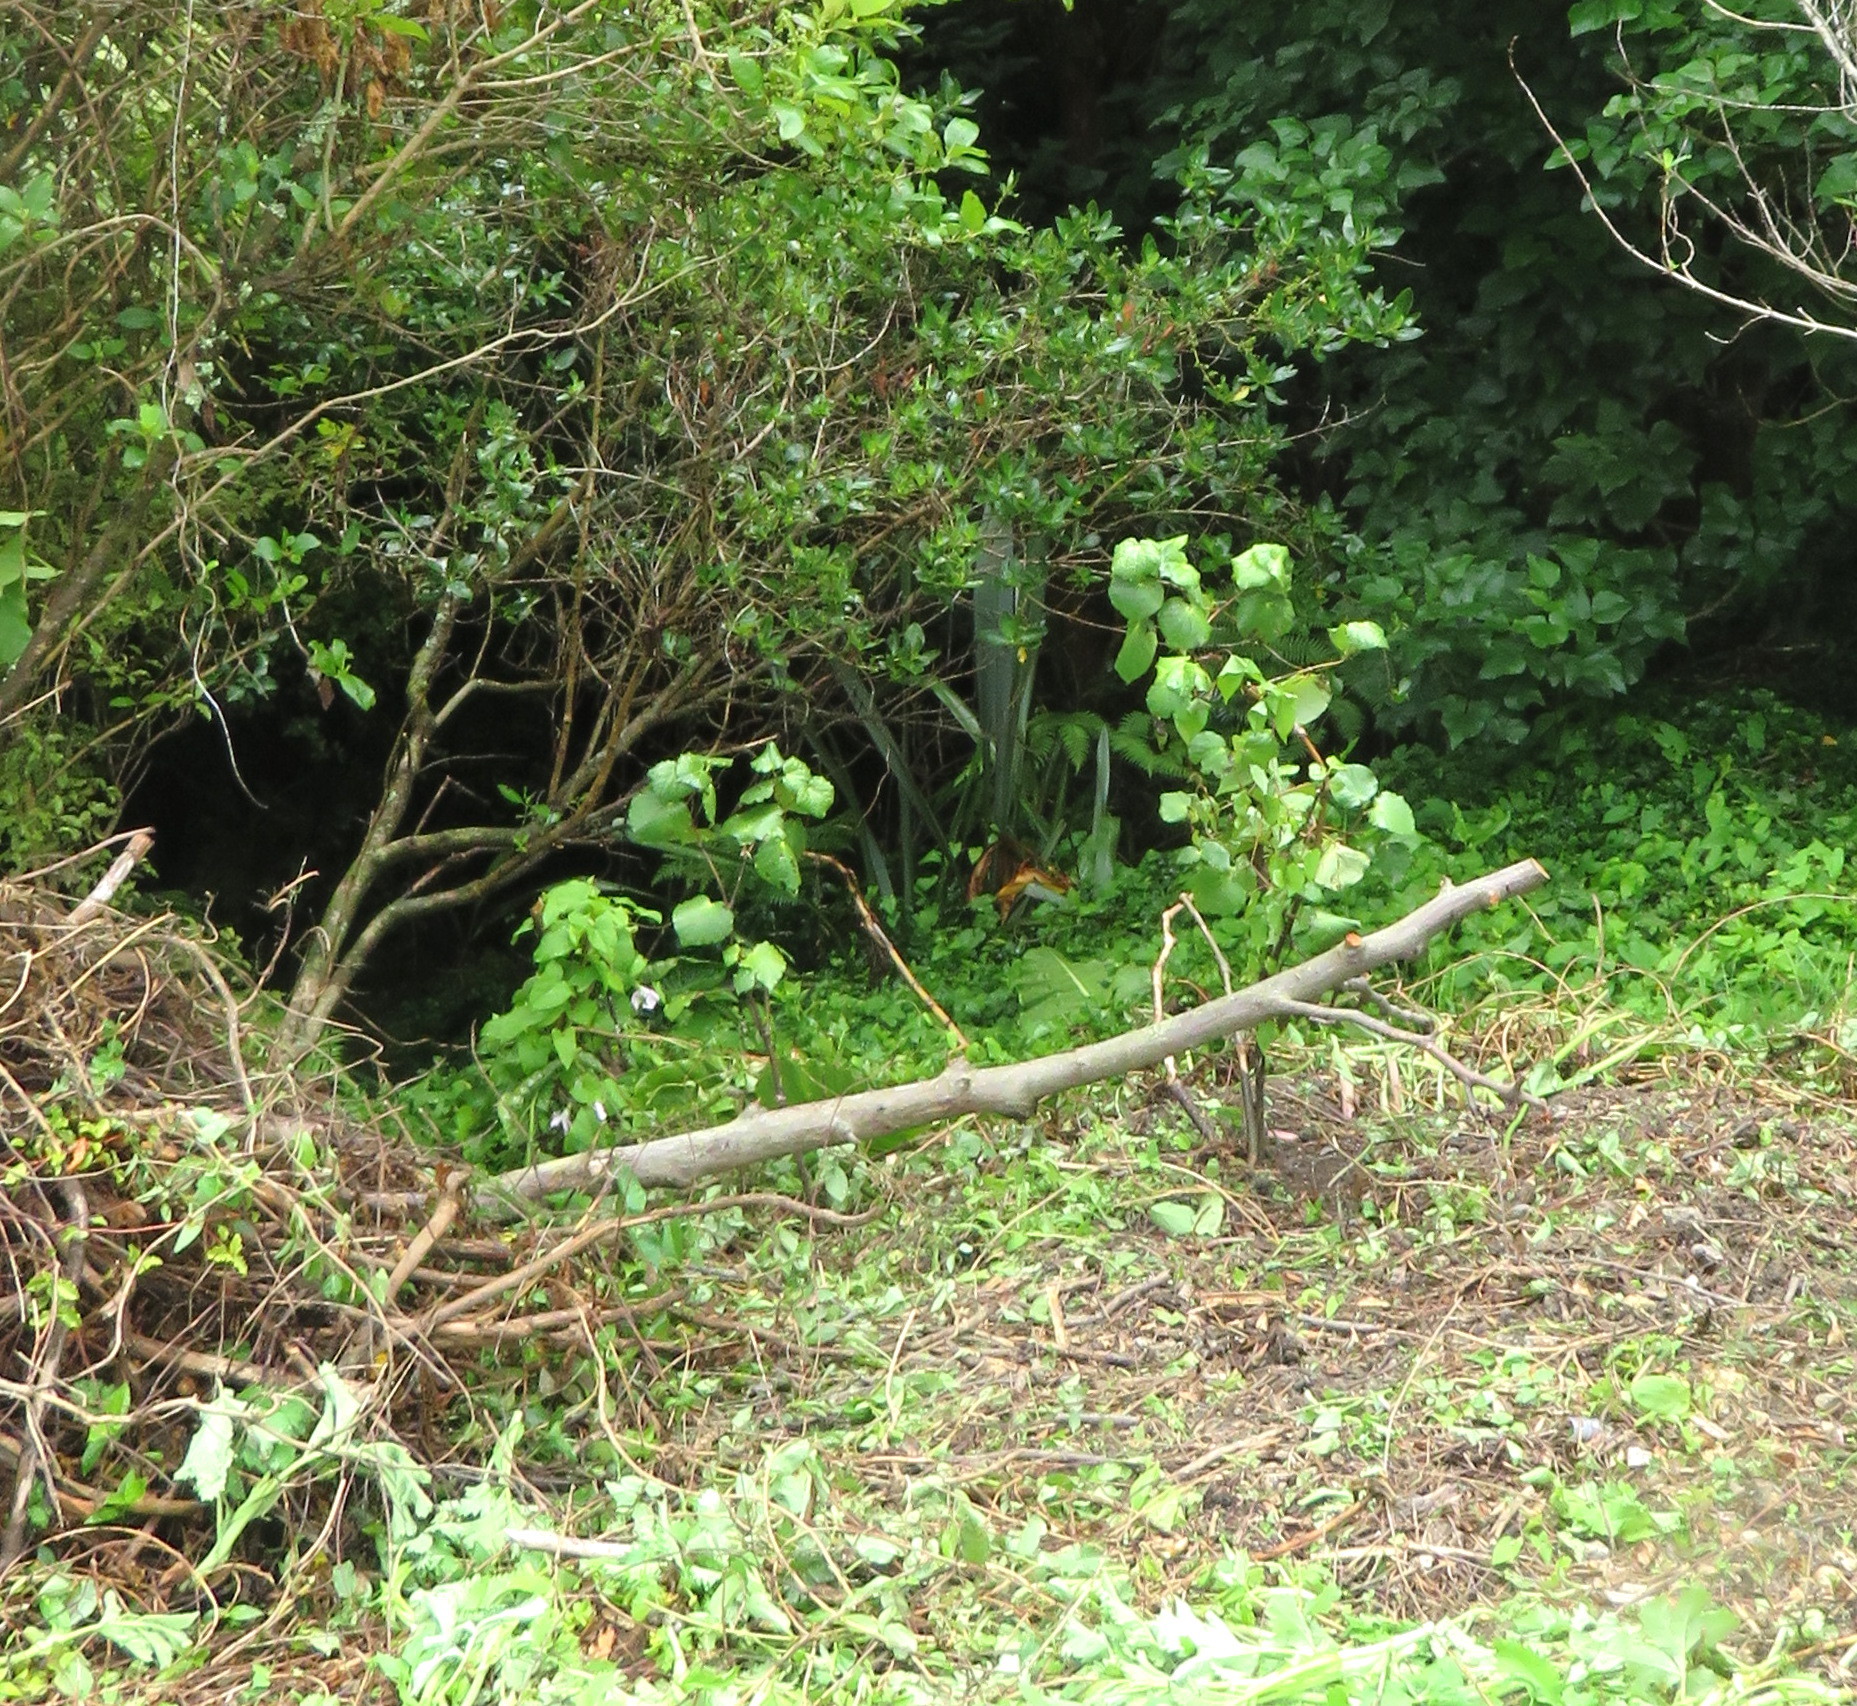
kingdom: Plantae
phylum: Tracheophyta
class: Magnoliopsida
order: Gentianales
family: Rubiaceae
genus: Coprosma
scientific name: Coprosma robusta
